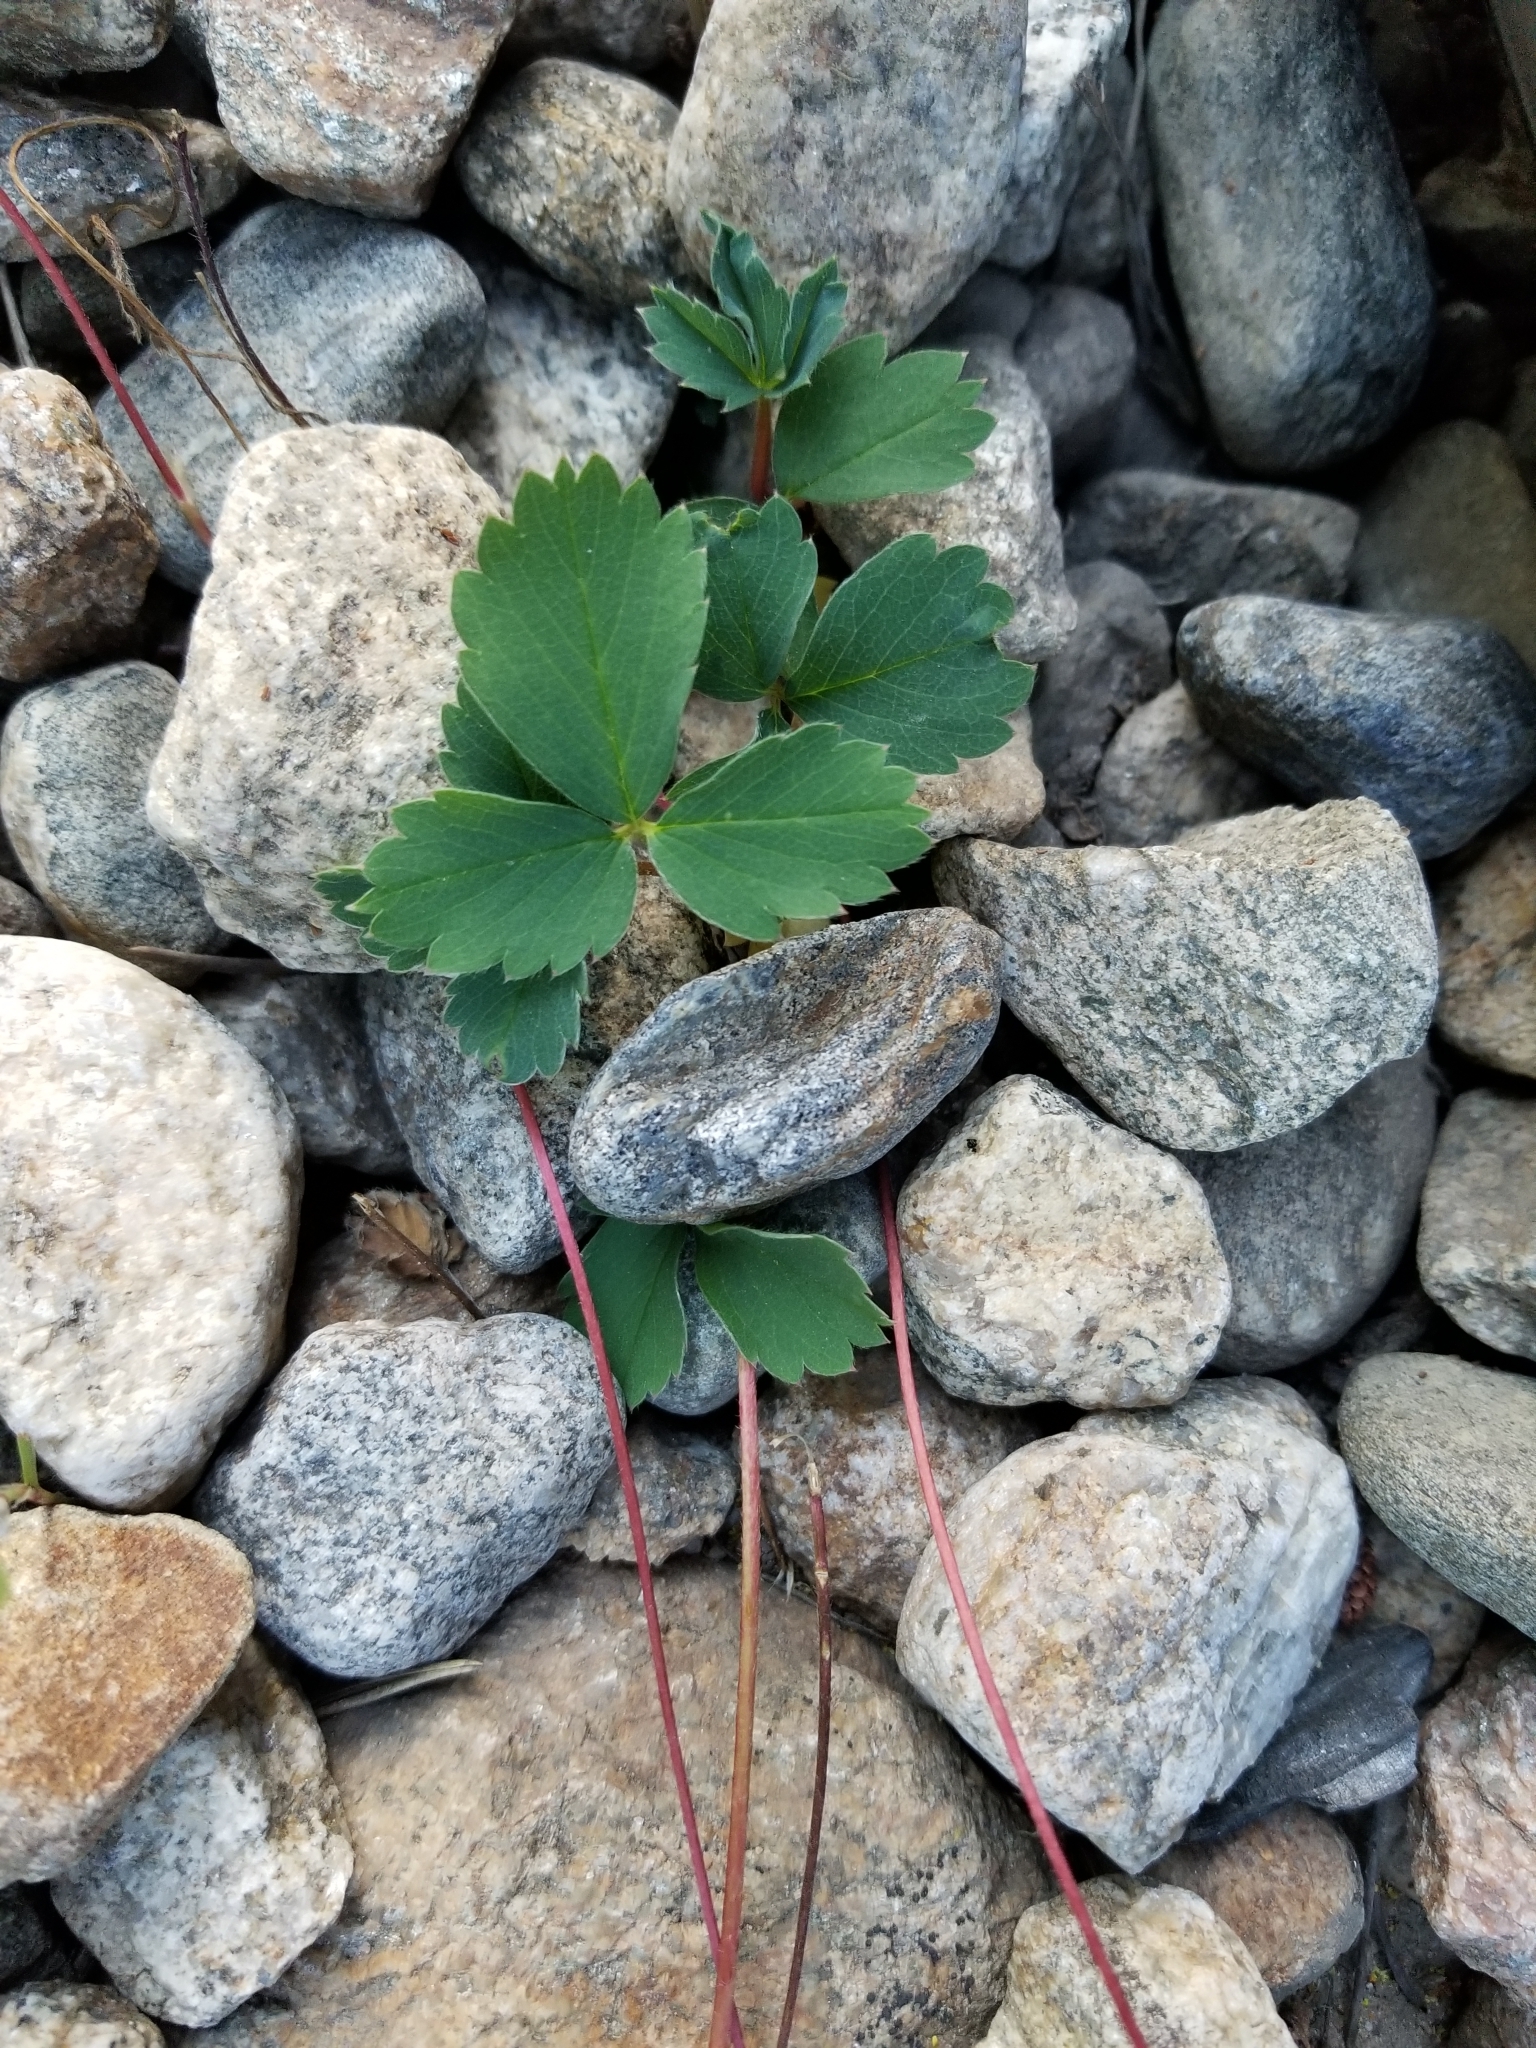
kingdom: Plantae
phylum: Tracheophyta
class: Magnoliopsida
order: Rosales
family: Rosaceae
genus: Fragaria
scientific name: Fragaria virginiana
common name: Thickleaved wild strawberry
